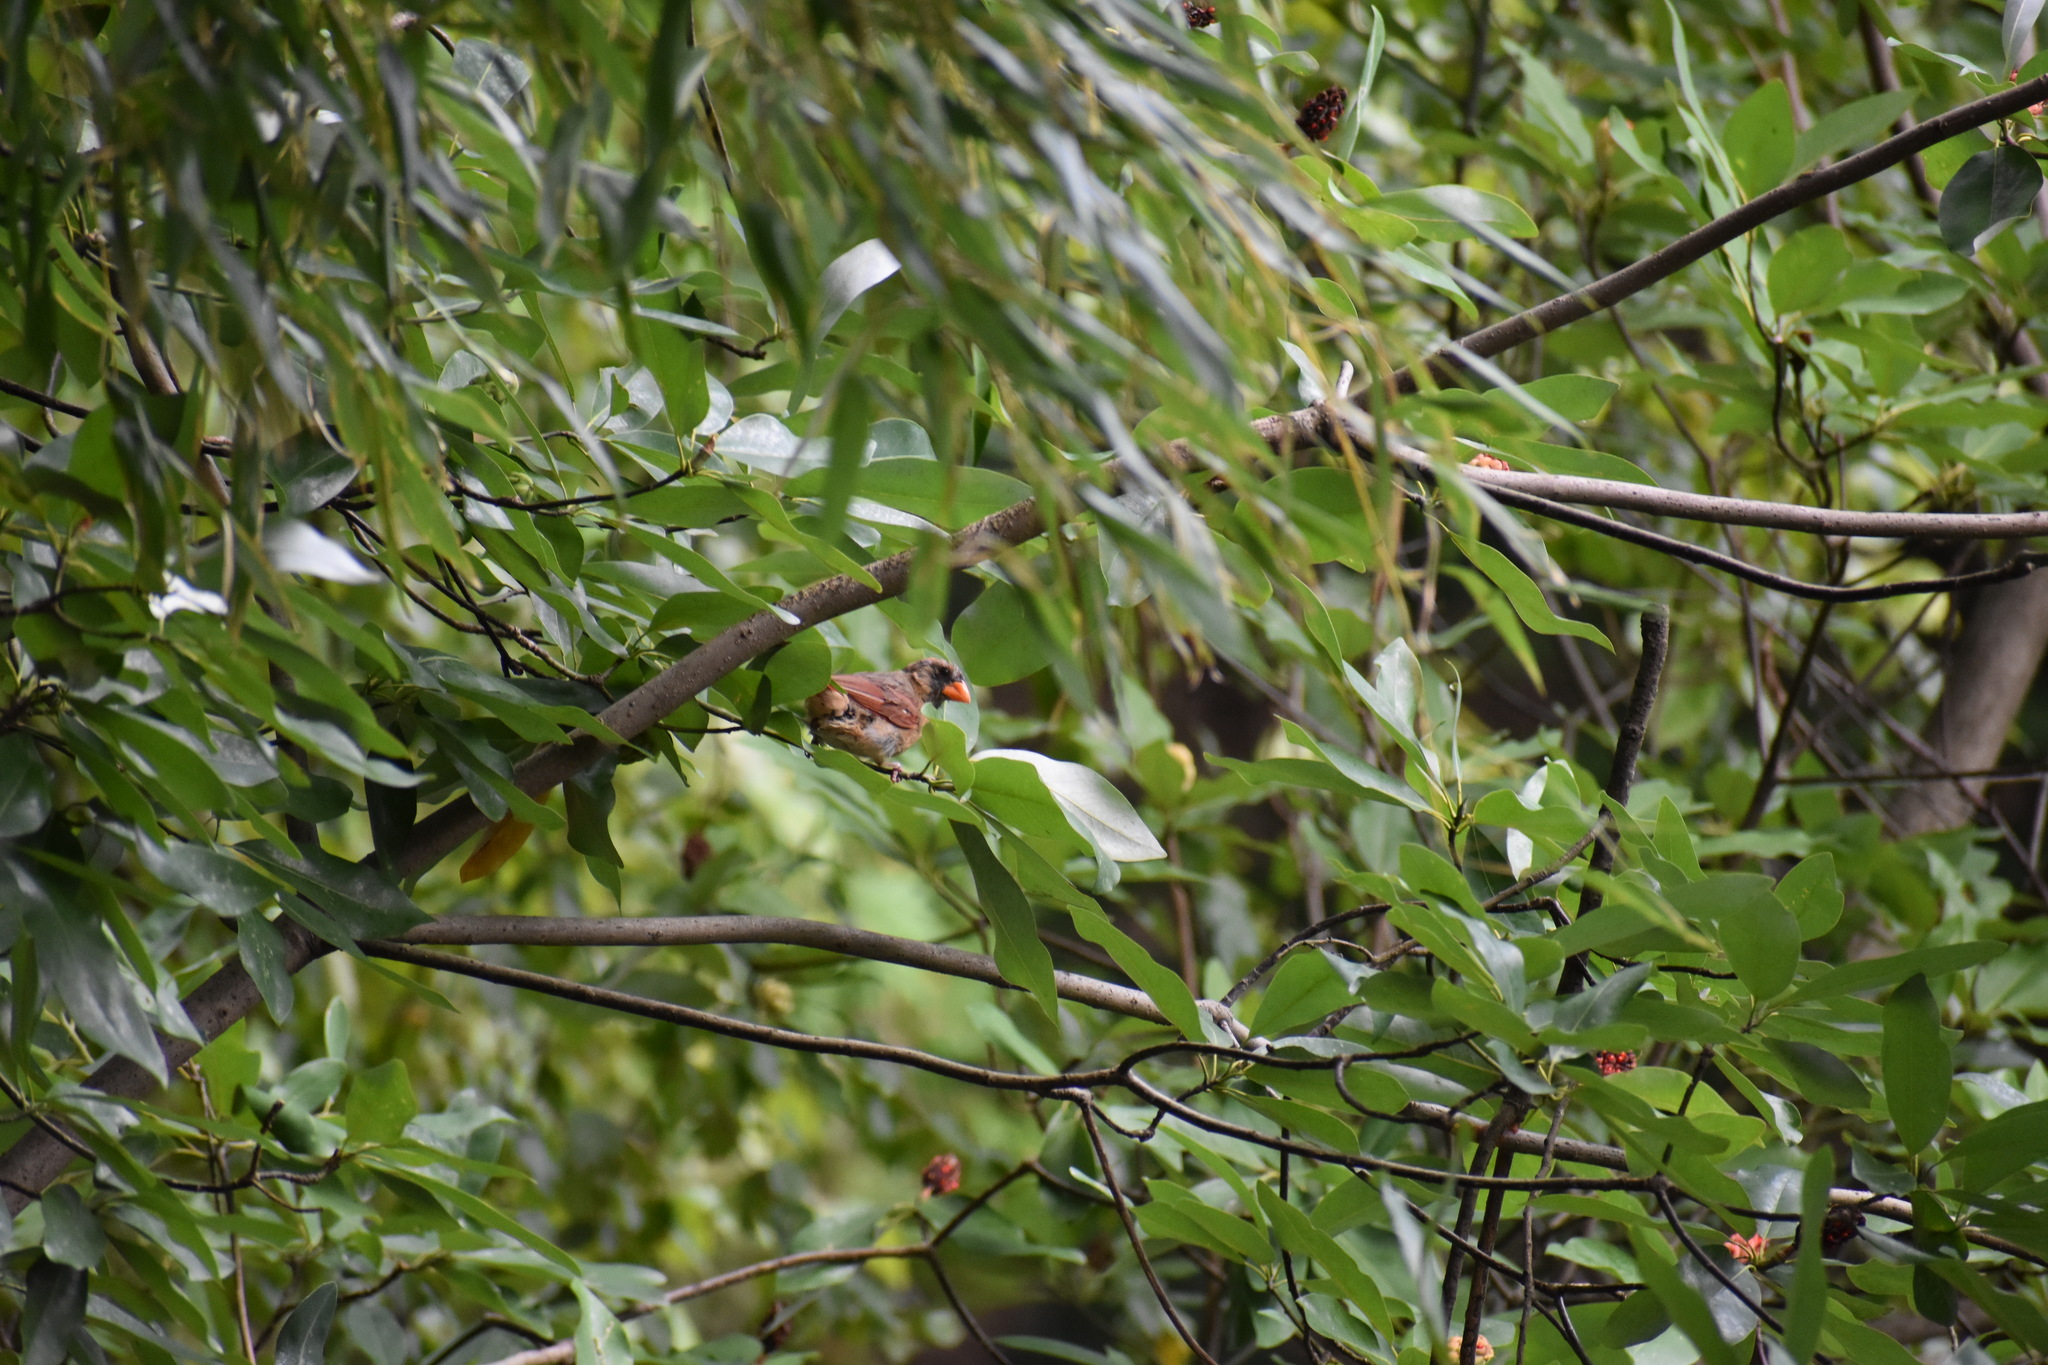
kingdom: Animalia
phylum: Chordata
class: Aves
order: Passeriformes
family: Cardinalidae
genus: Cardinalis
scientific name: Cardinalis cardinalis
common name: Northern cardinal
